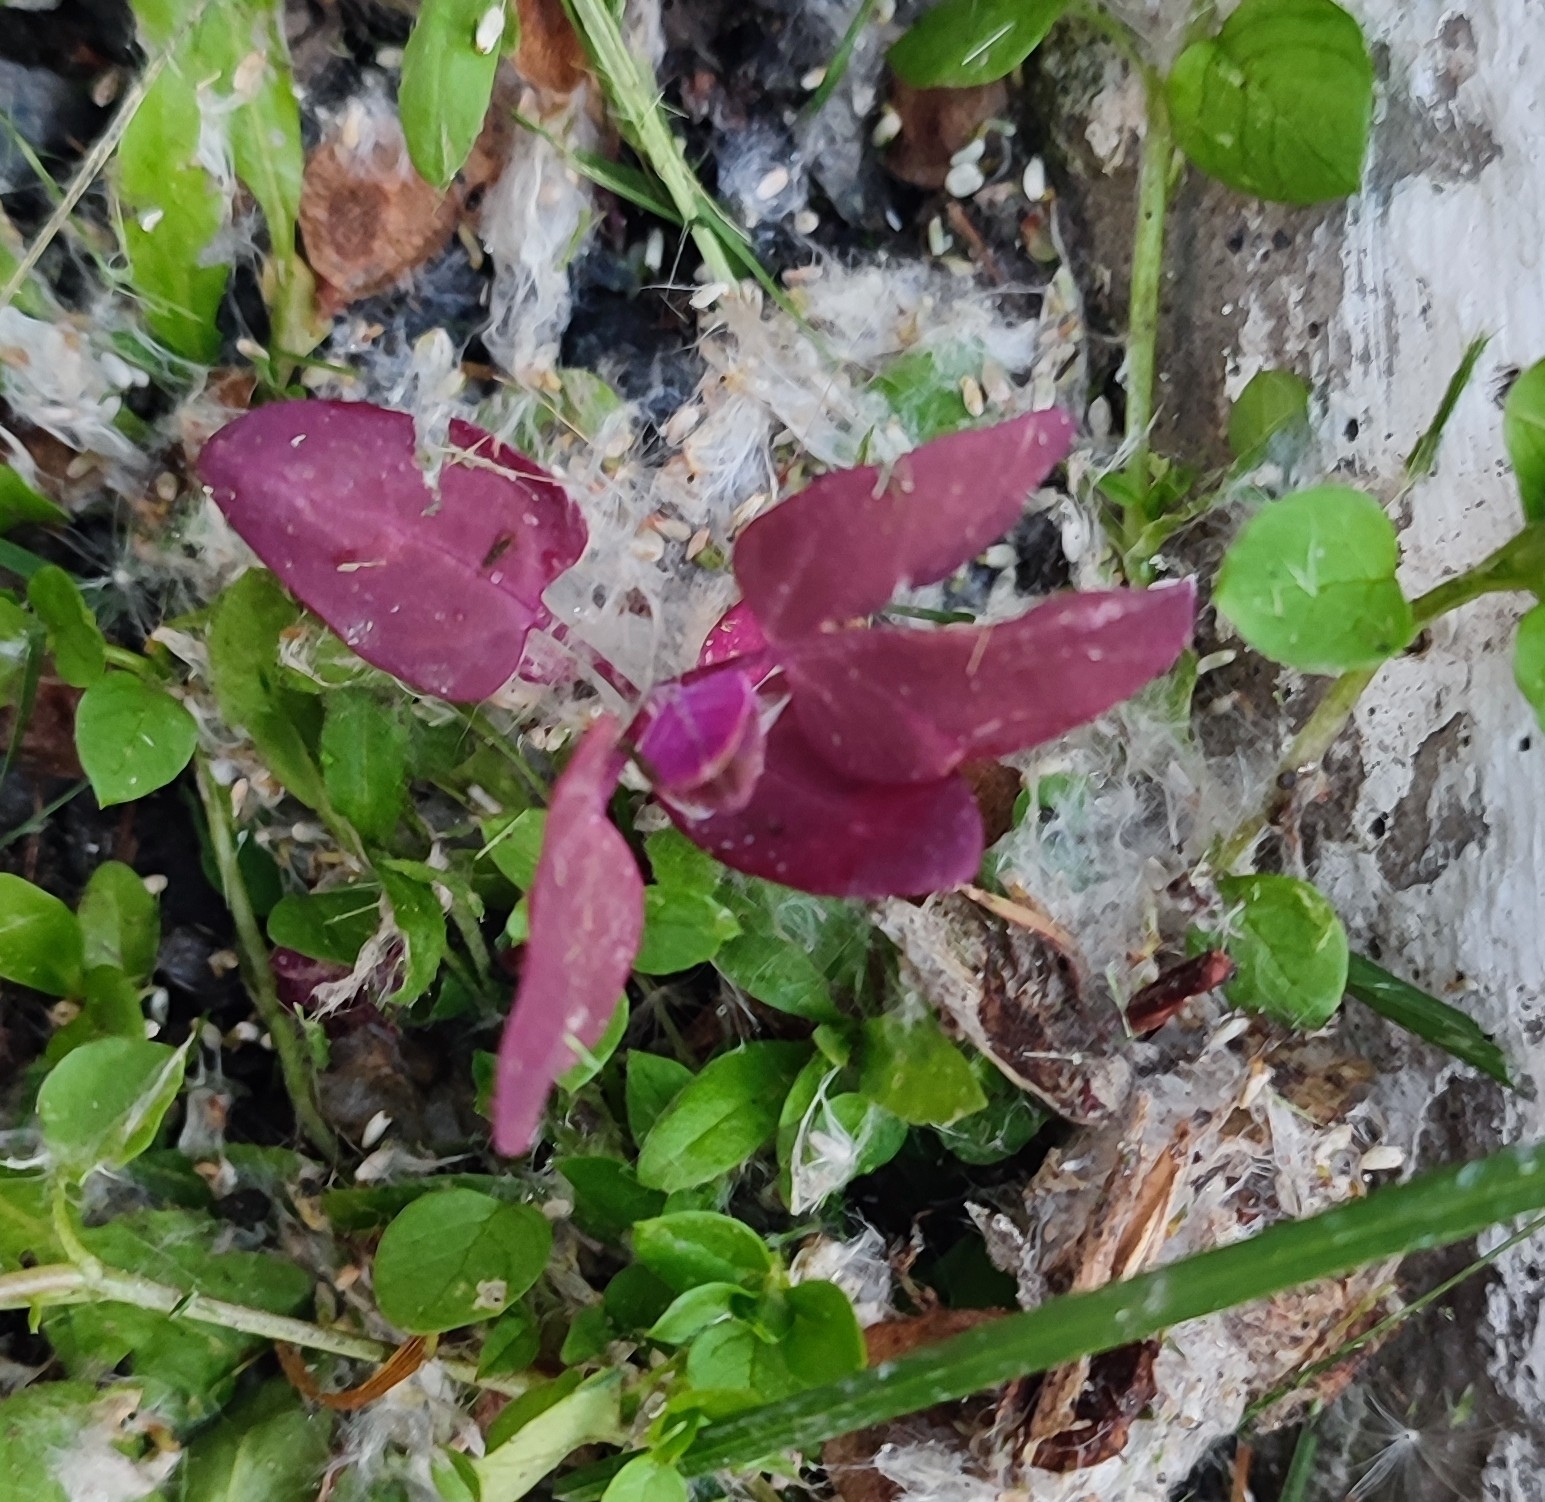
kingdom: Plantae
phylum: Tracheophyta
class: Magnoliopsida
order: Caryophyllales
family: Amaranthaceae
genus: Atriplex
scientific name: Atriplex hortensis
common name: Garden orache
